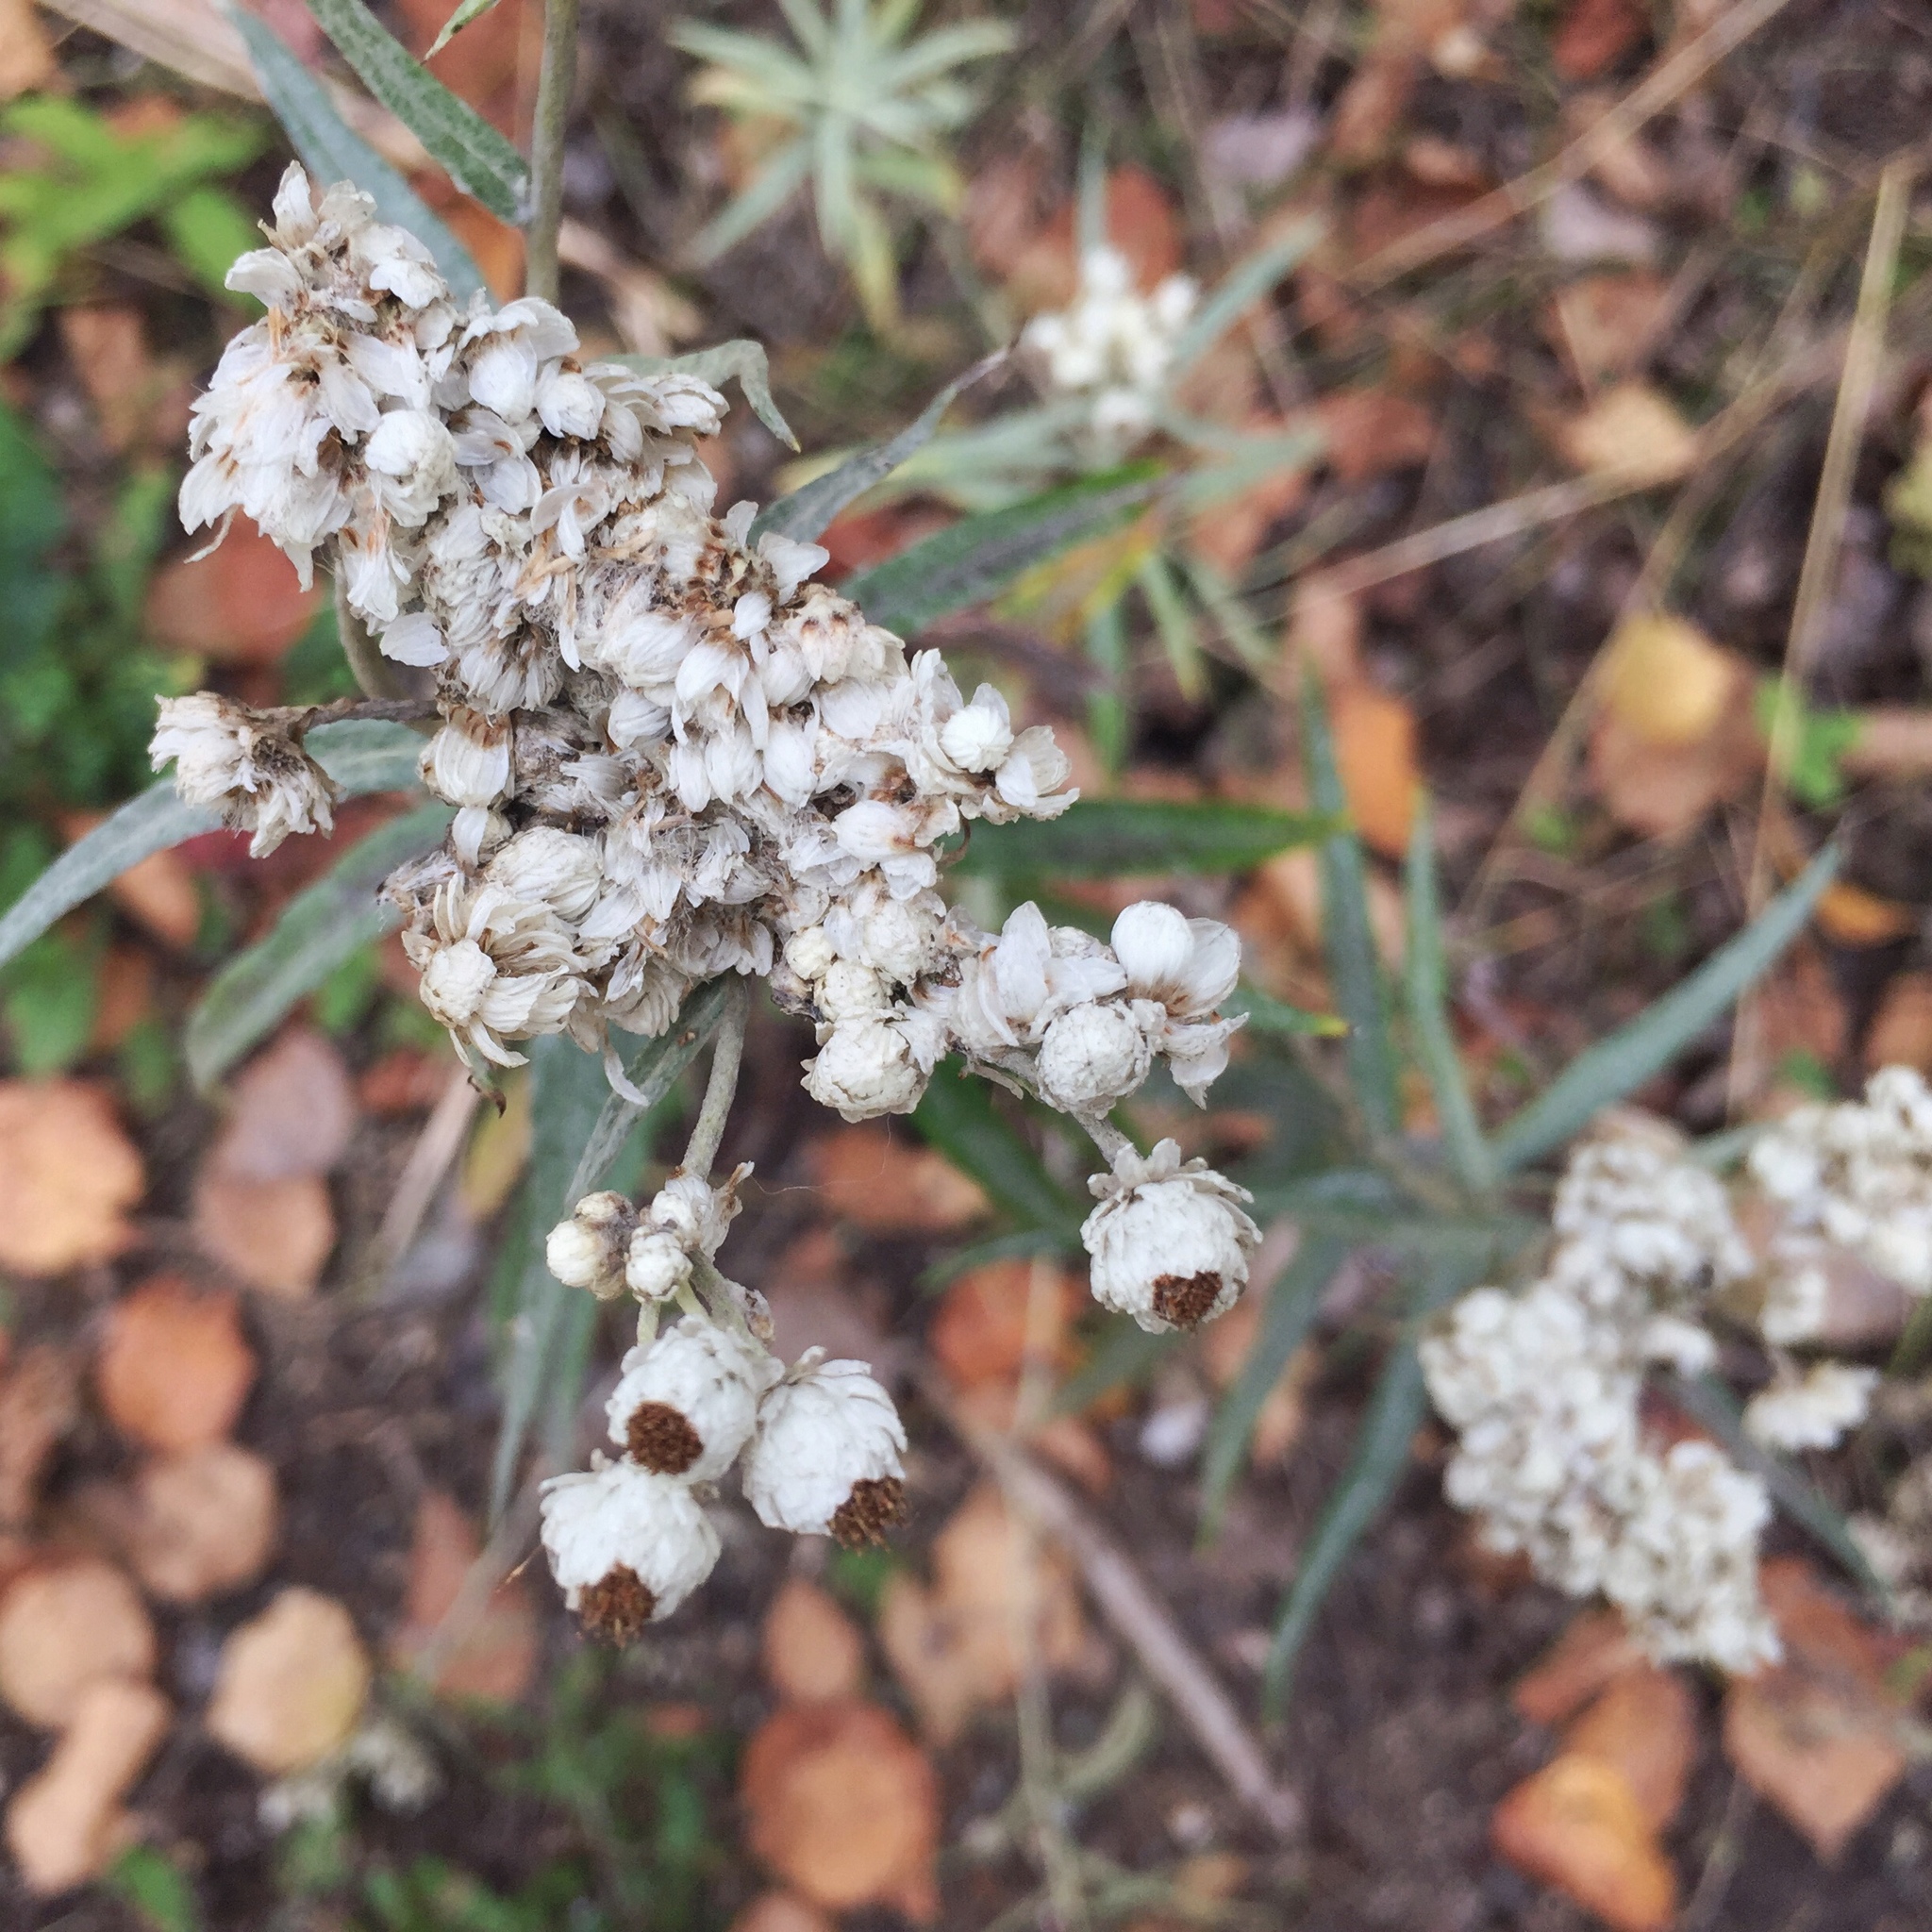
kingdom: Plantae
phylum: Tracheophyta
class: Magnoliopsida
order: Asterales
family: Asteraceae
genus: Anaphalis
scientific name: Anaphalis margaritacea
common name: Pearly everlasting
